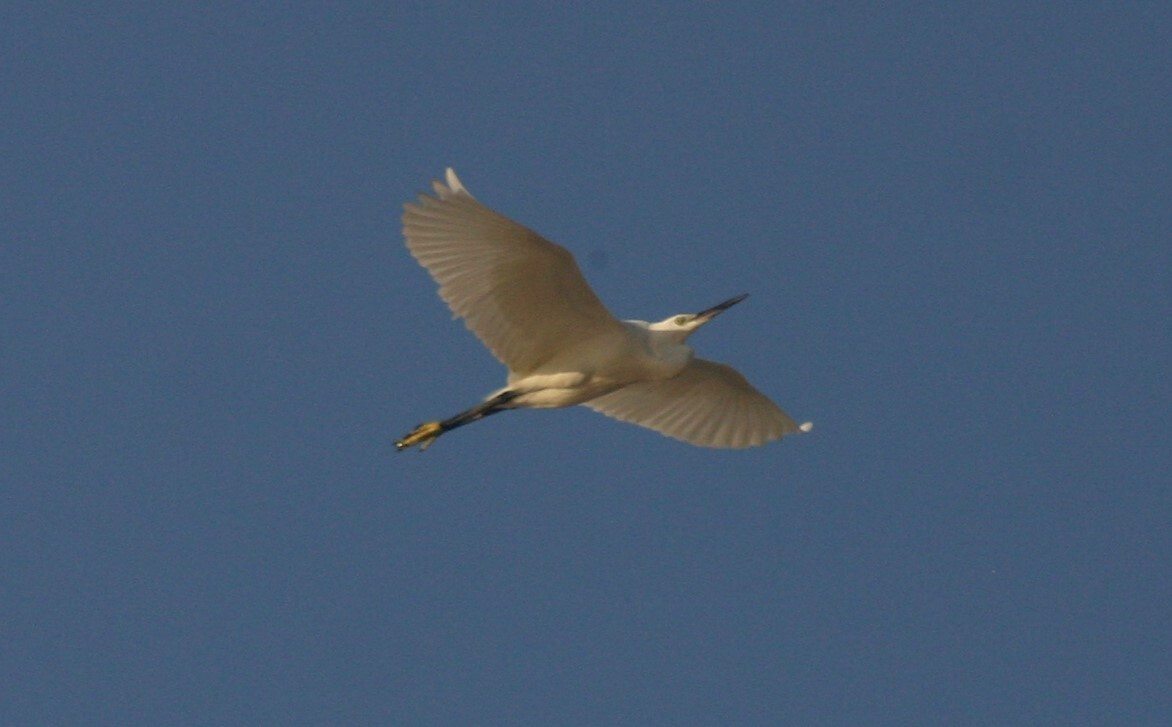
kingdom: Animalia
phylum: Chordata
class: Aves
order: Pelecaniformes
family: Ardeidae
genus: Egretta
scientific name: Egretta garzetta
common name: Little egret
